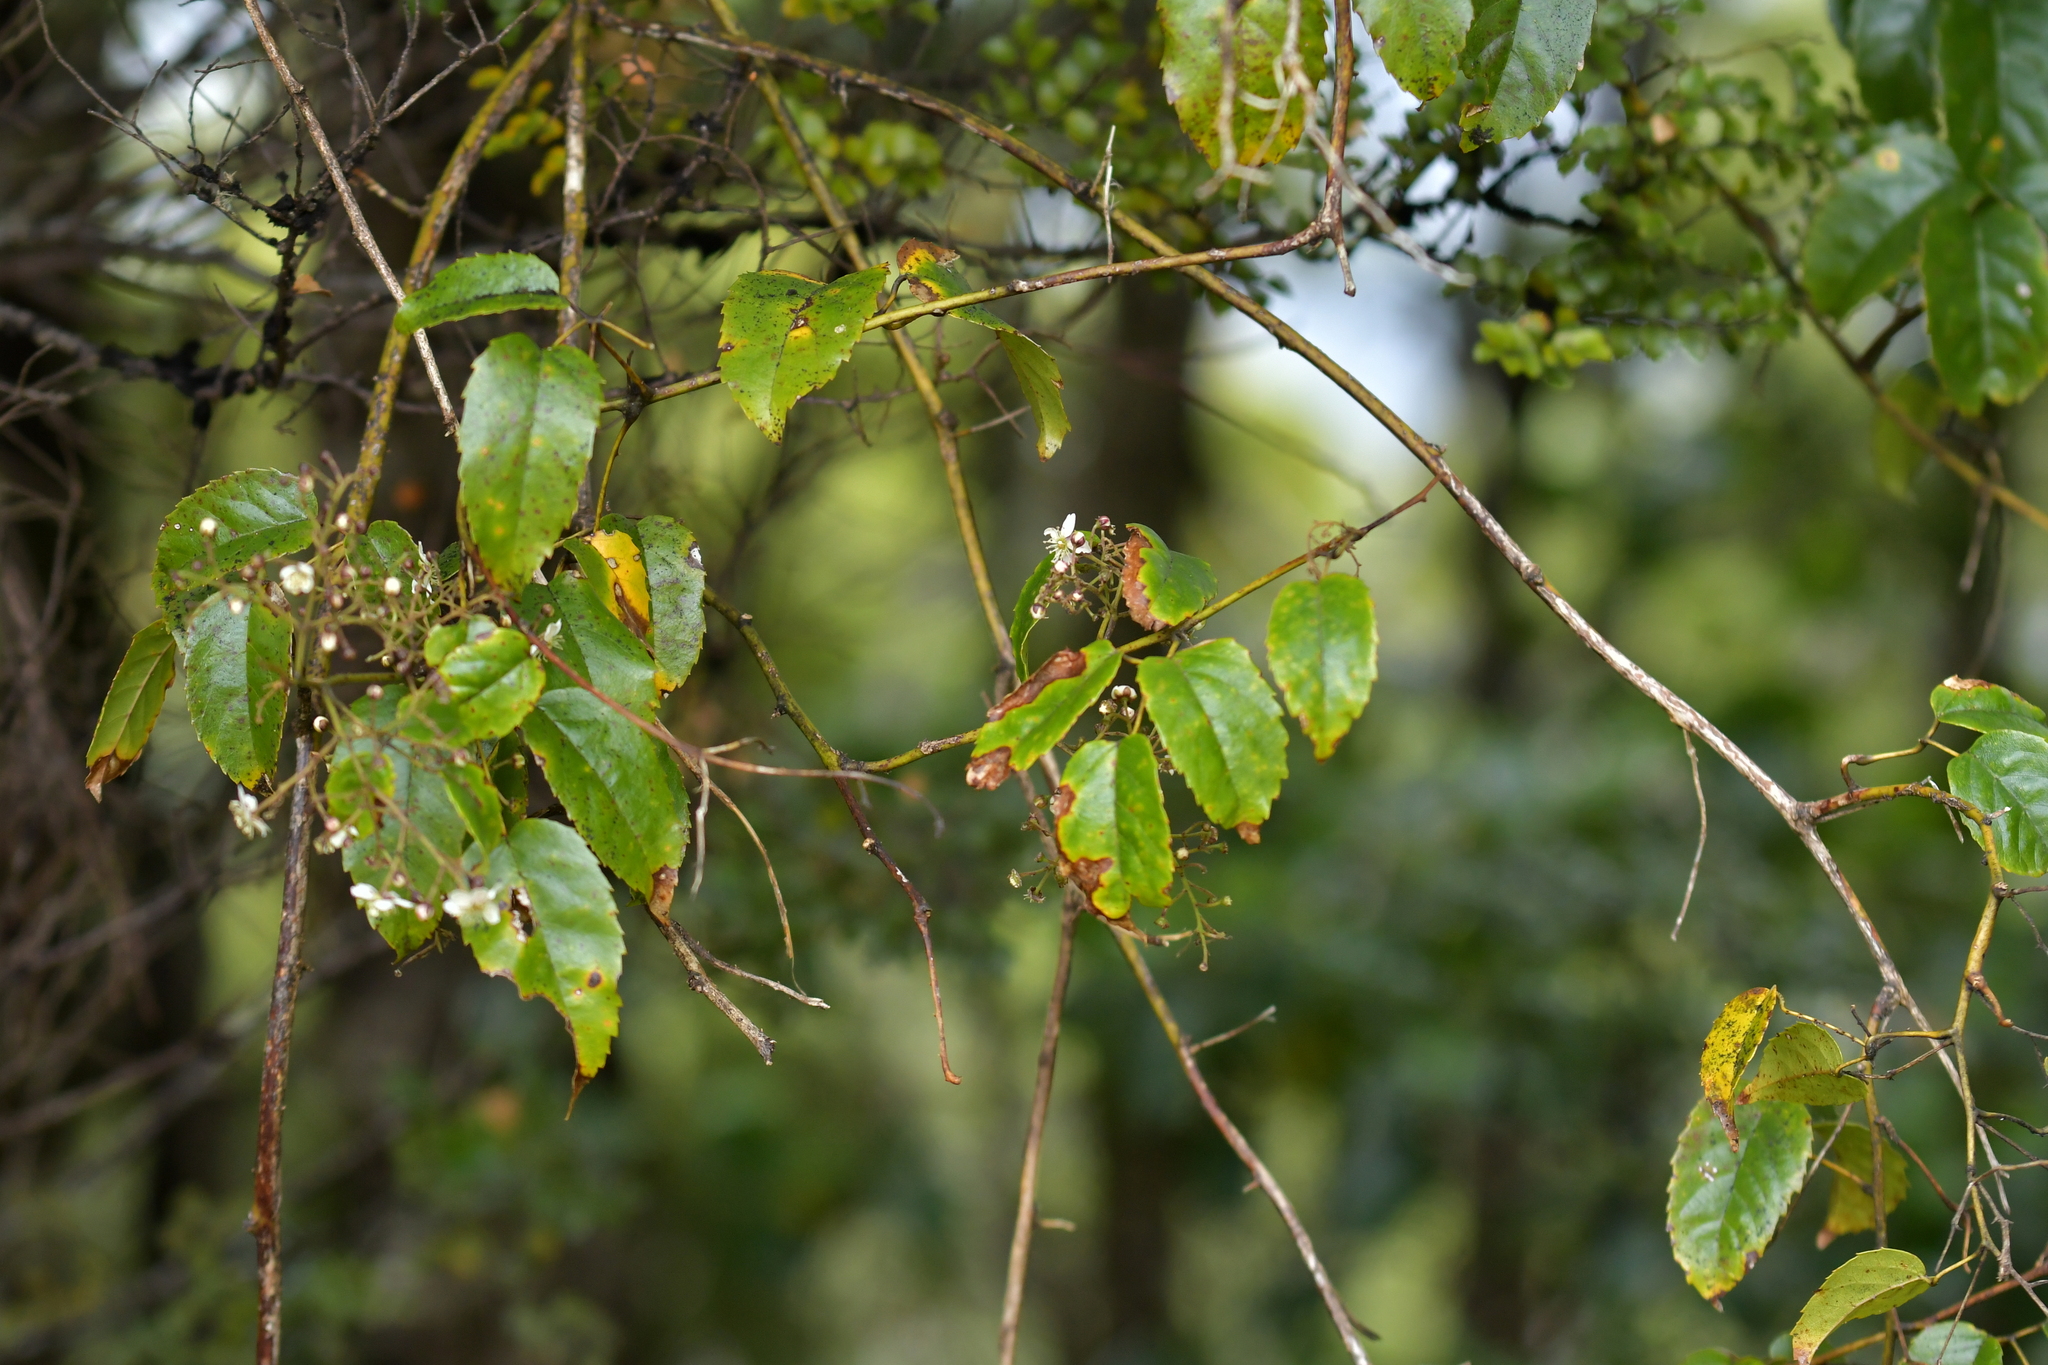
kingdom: Plantae
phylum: Tracheophyta
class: Magnoliopsida
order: Rosales
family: Rosaceae
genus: Rubus
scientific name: Rubus cissoides
